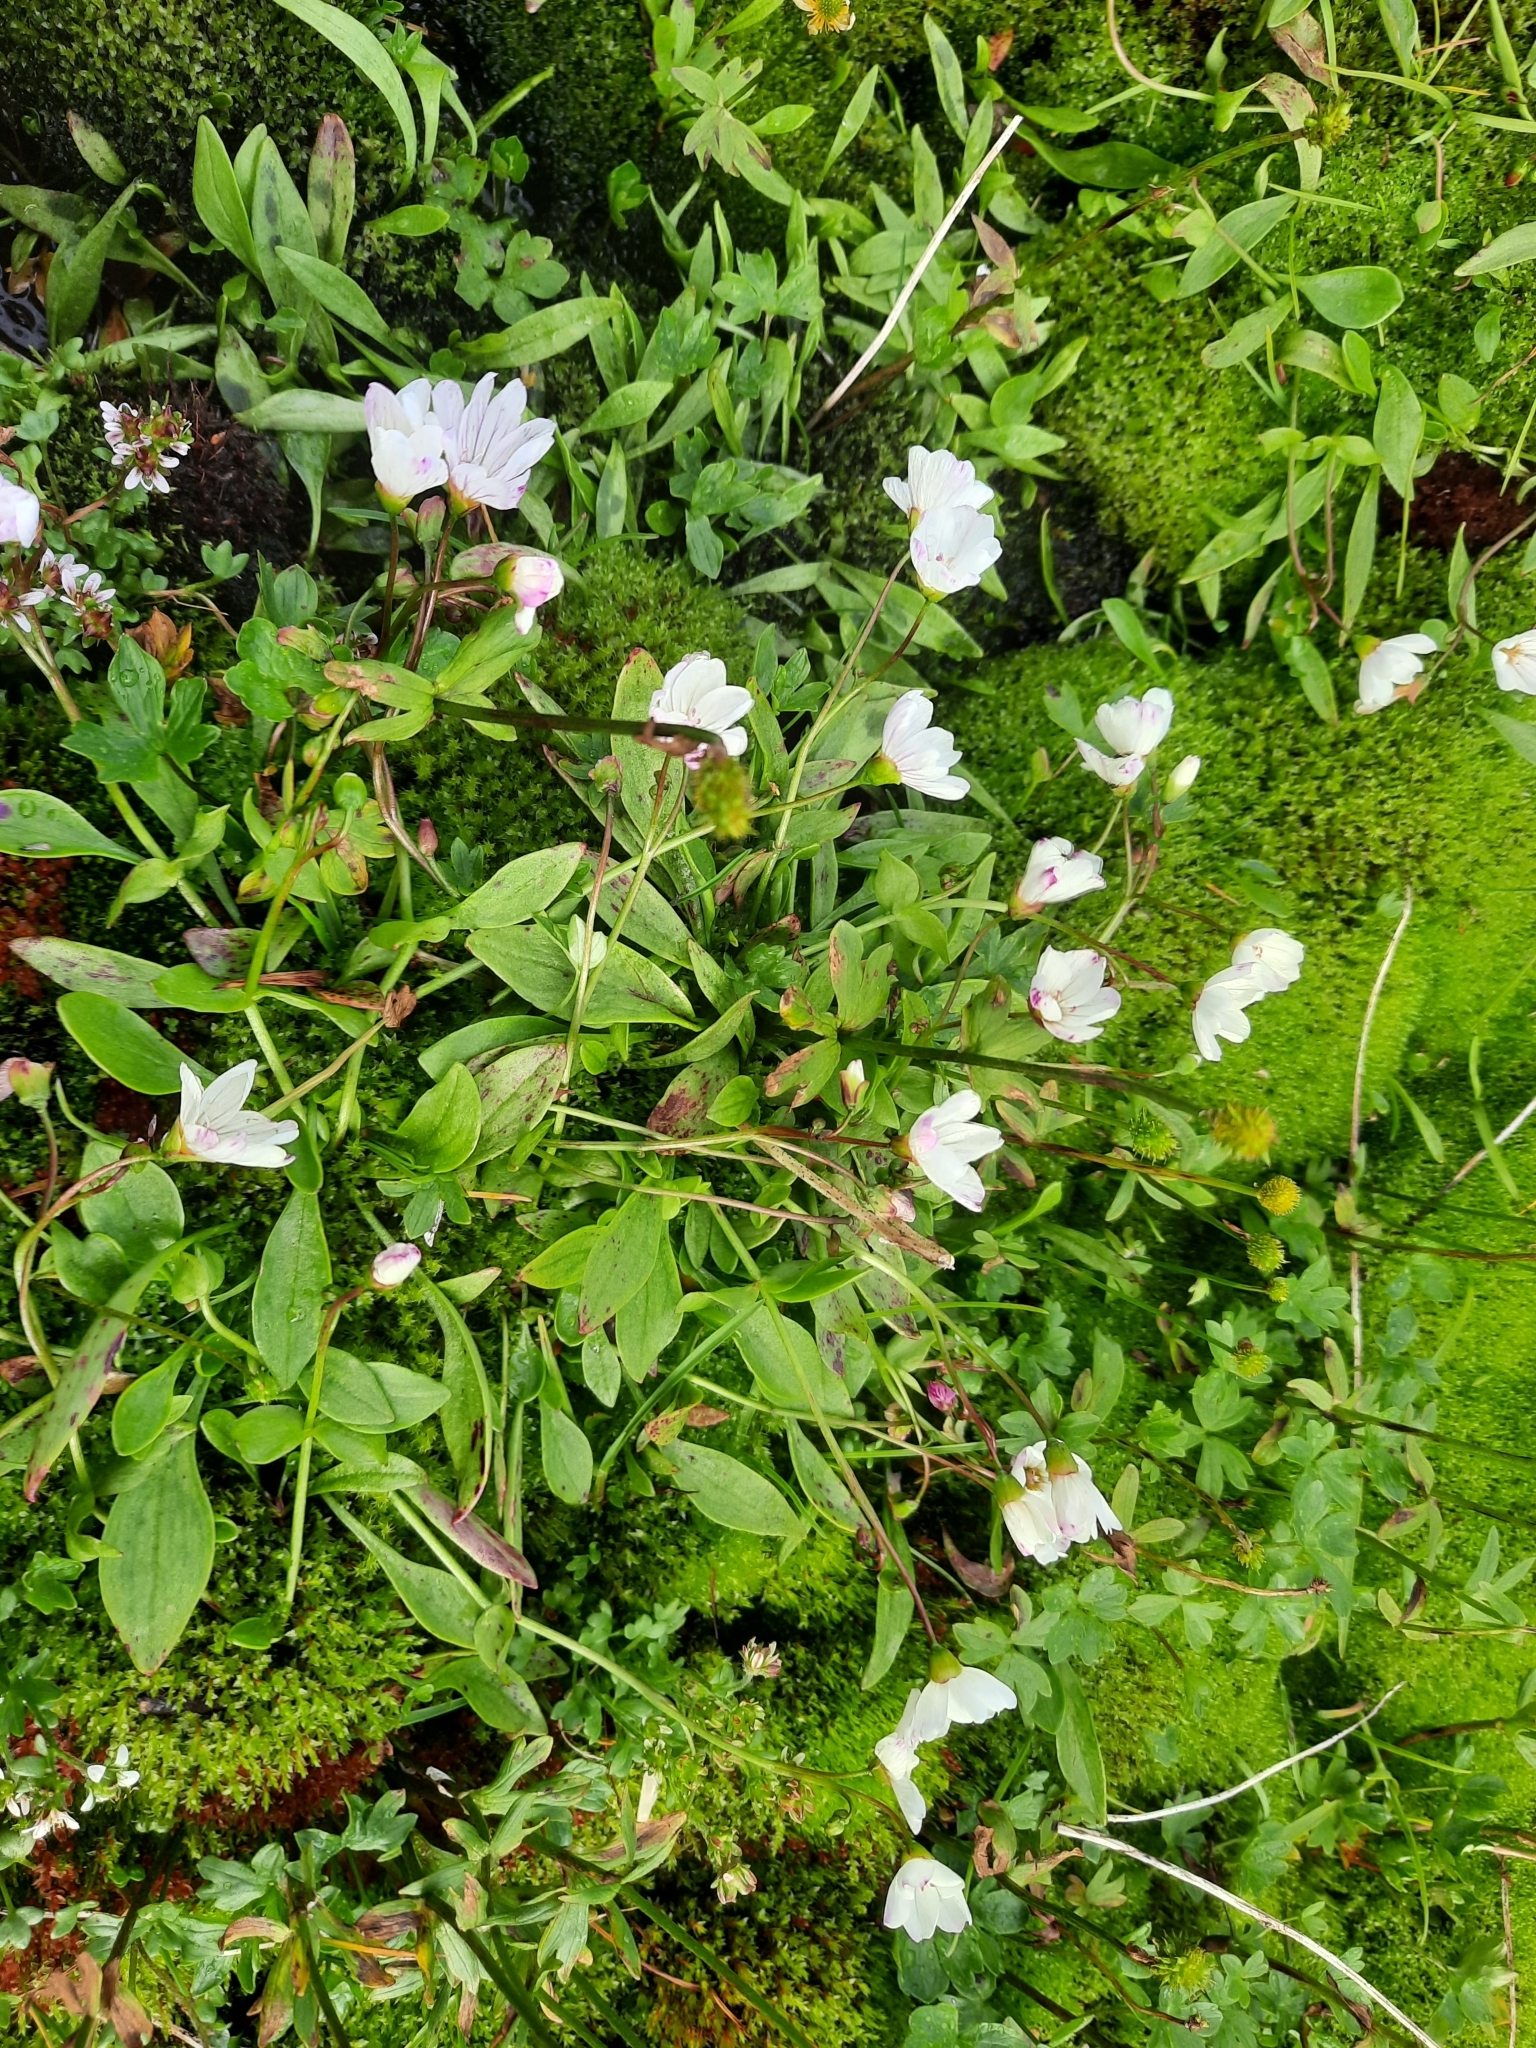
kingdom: Plantae
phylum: Tracheophyta
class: Magnoliopsida
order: Caryophyllales
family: Montiaceae
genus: Claytonia
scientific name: Claytonia sarmentosa
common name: Alaska spring beauty
